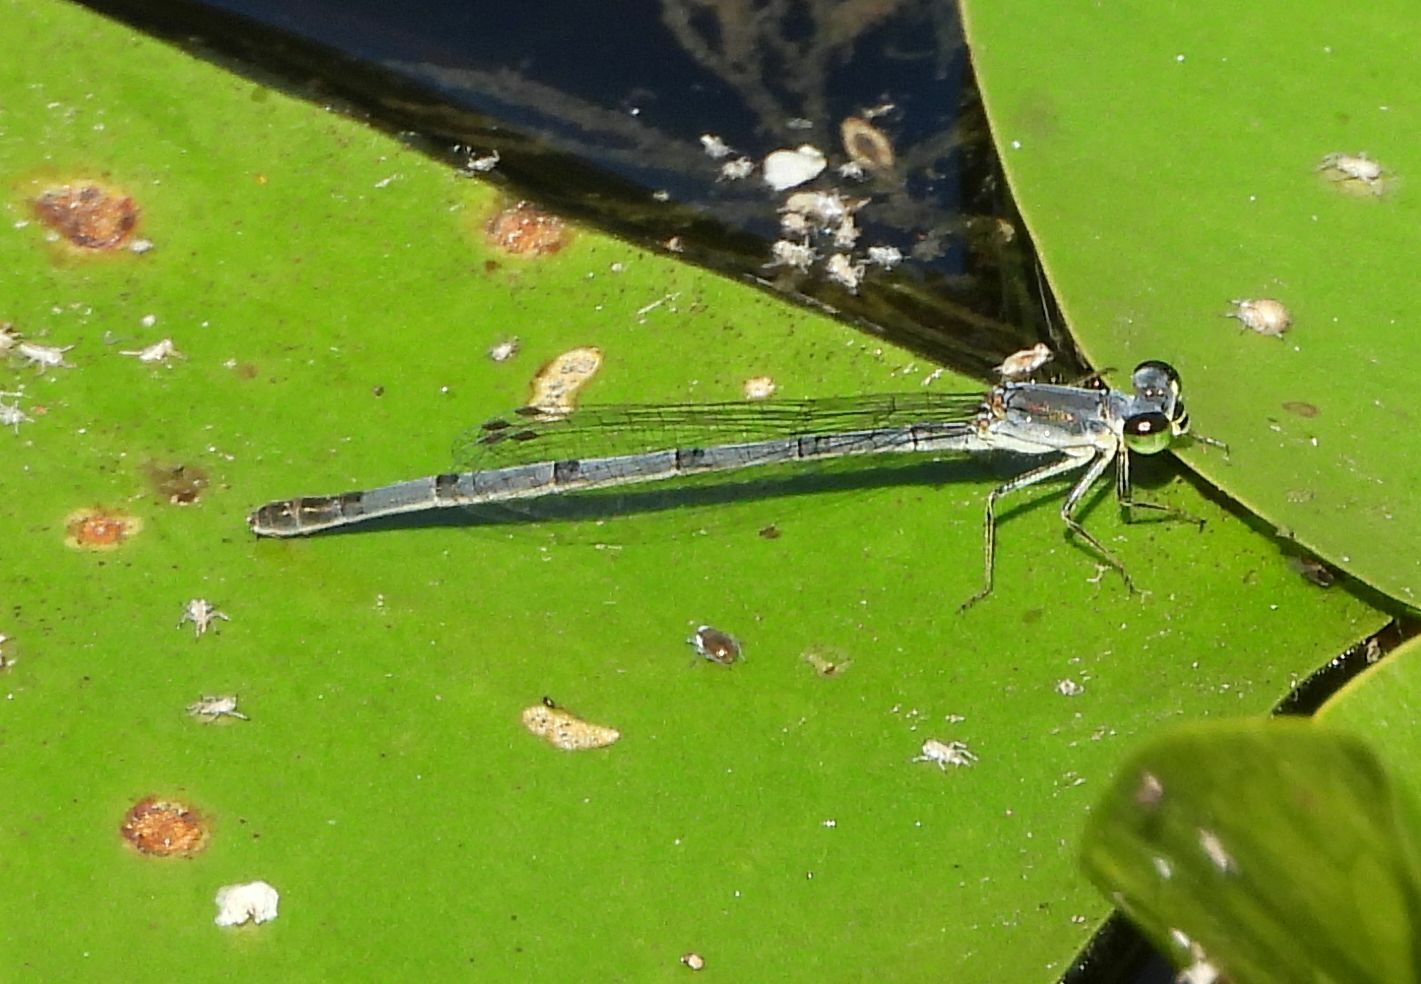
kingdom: Animalia
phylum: Arthropoda
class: Insecta
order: Odonata
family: Coenagrionidae
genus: Ischnura
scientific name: Ischnura verticalis
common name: Eastern forktail
